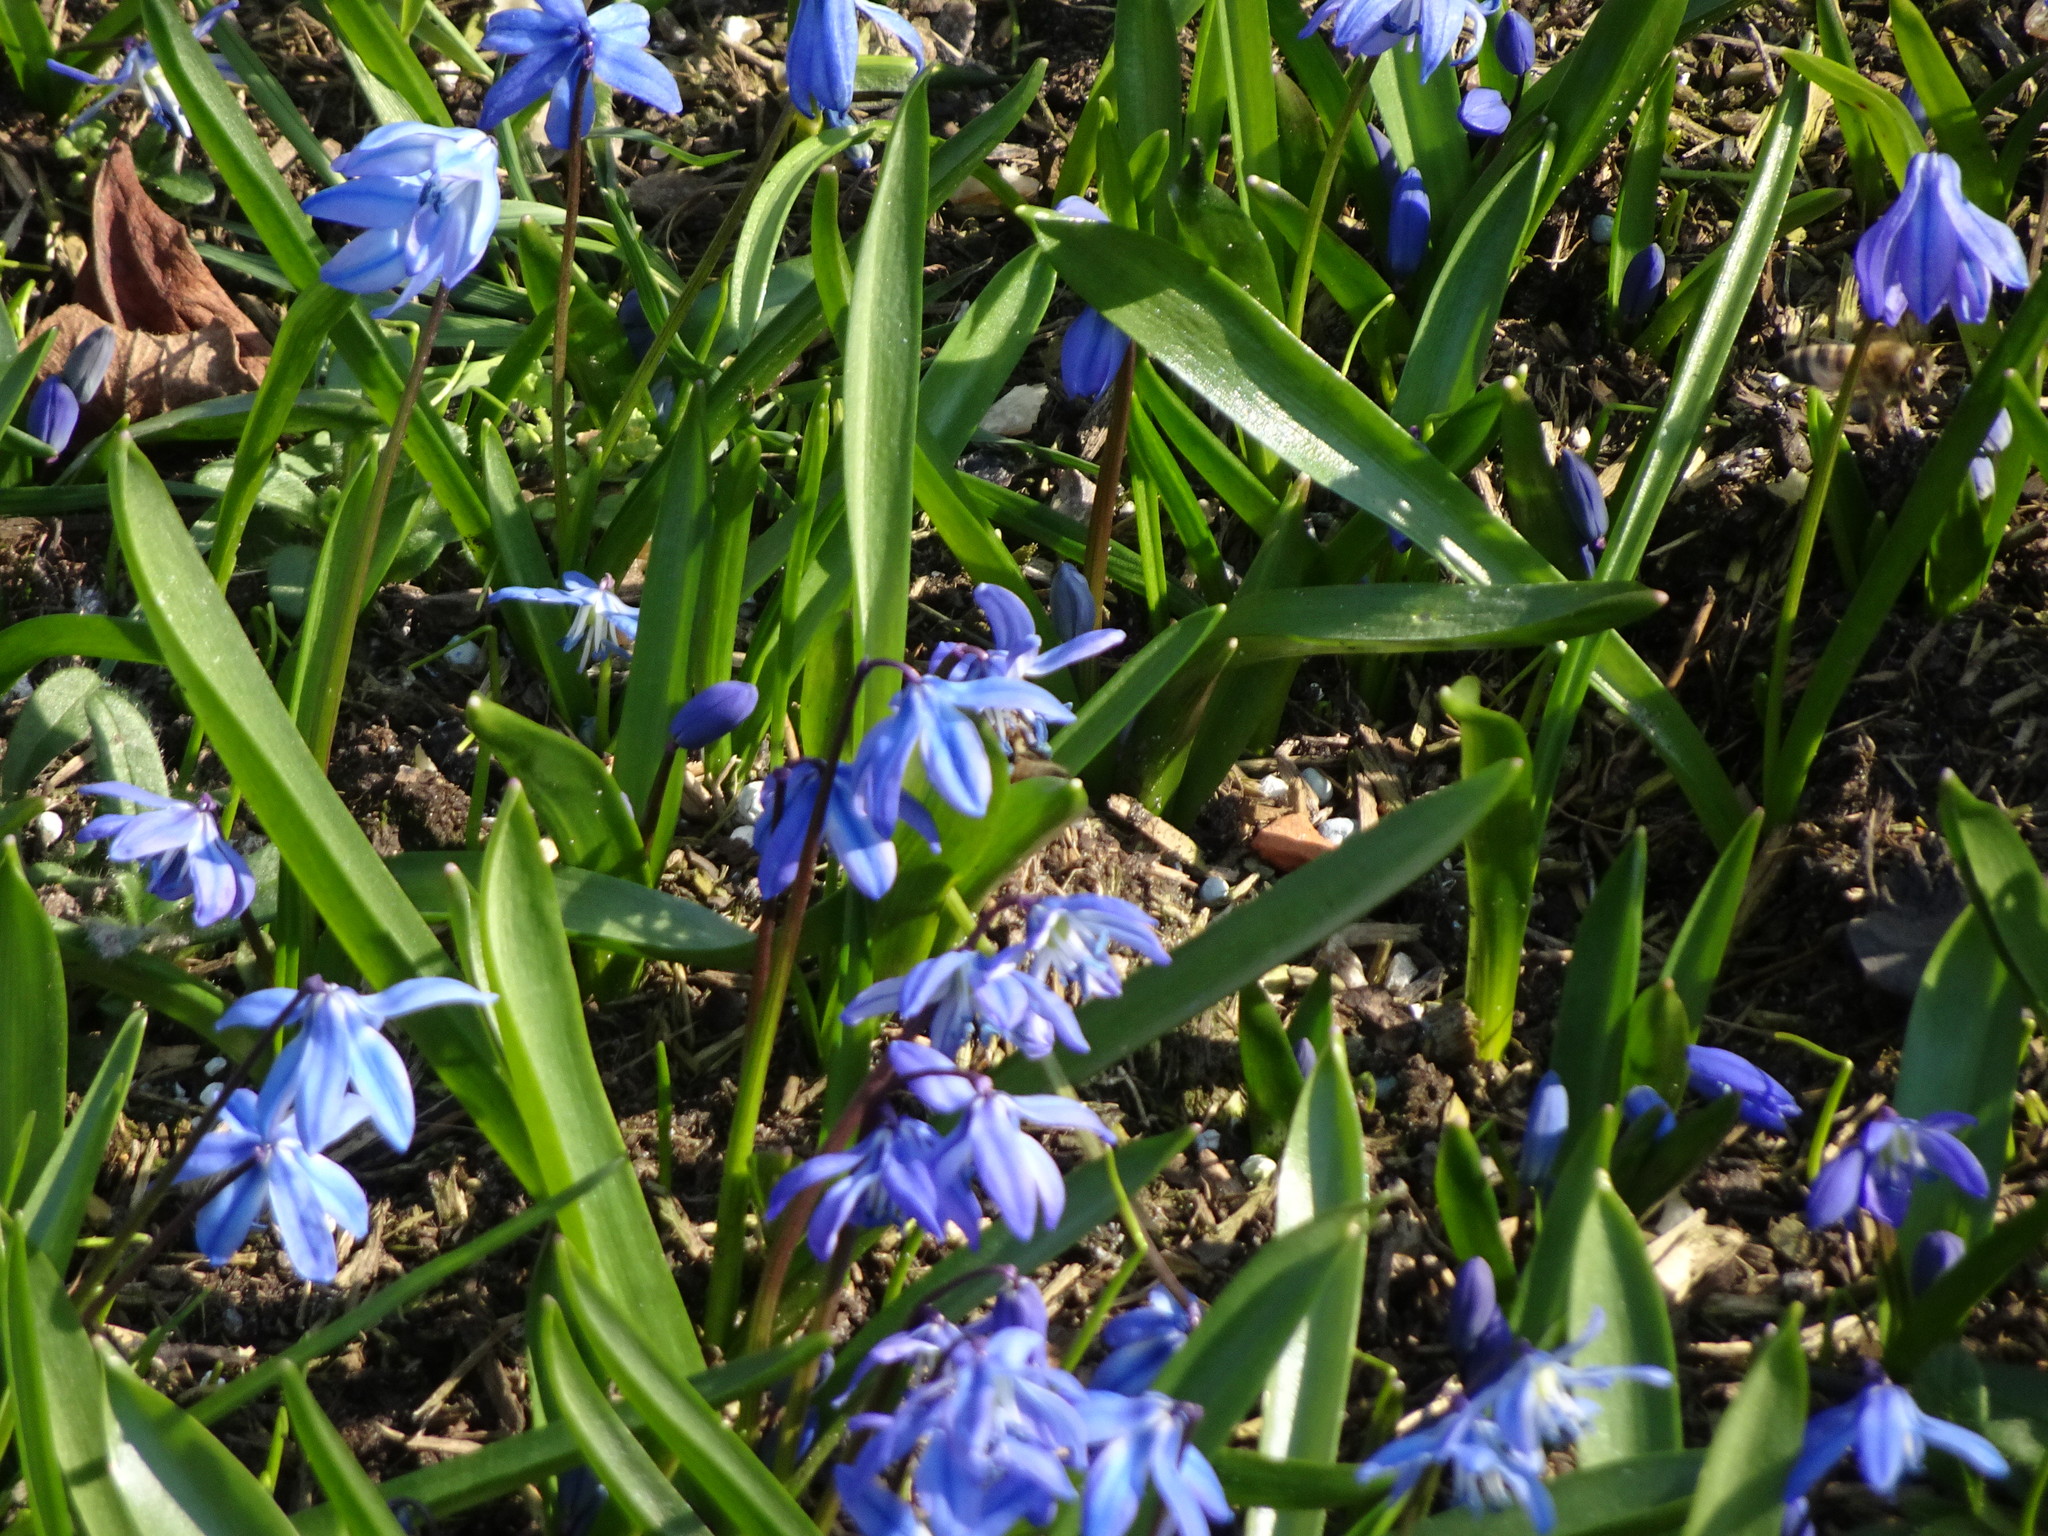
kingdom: Plantae
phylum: Tracheophyta
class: Liliopsida
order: Asparagales
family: Asparagaceae
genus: Scilla
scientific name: Scilla siberica
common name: Siberian squill
